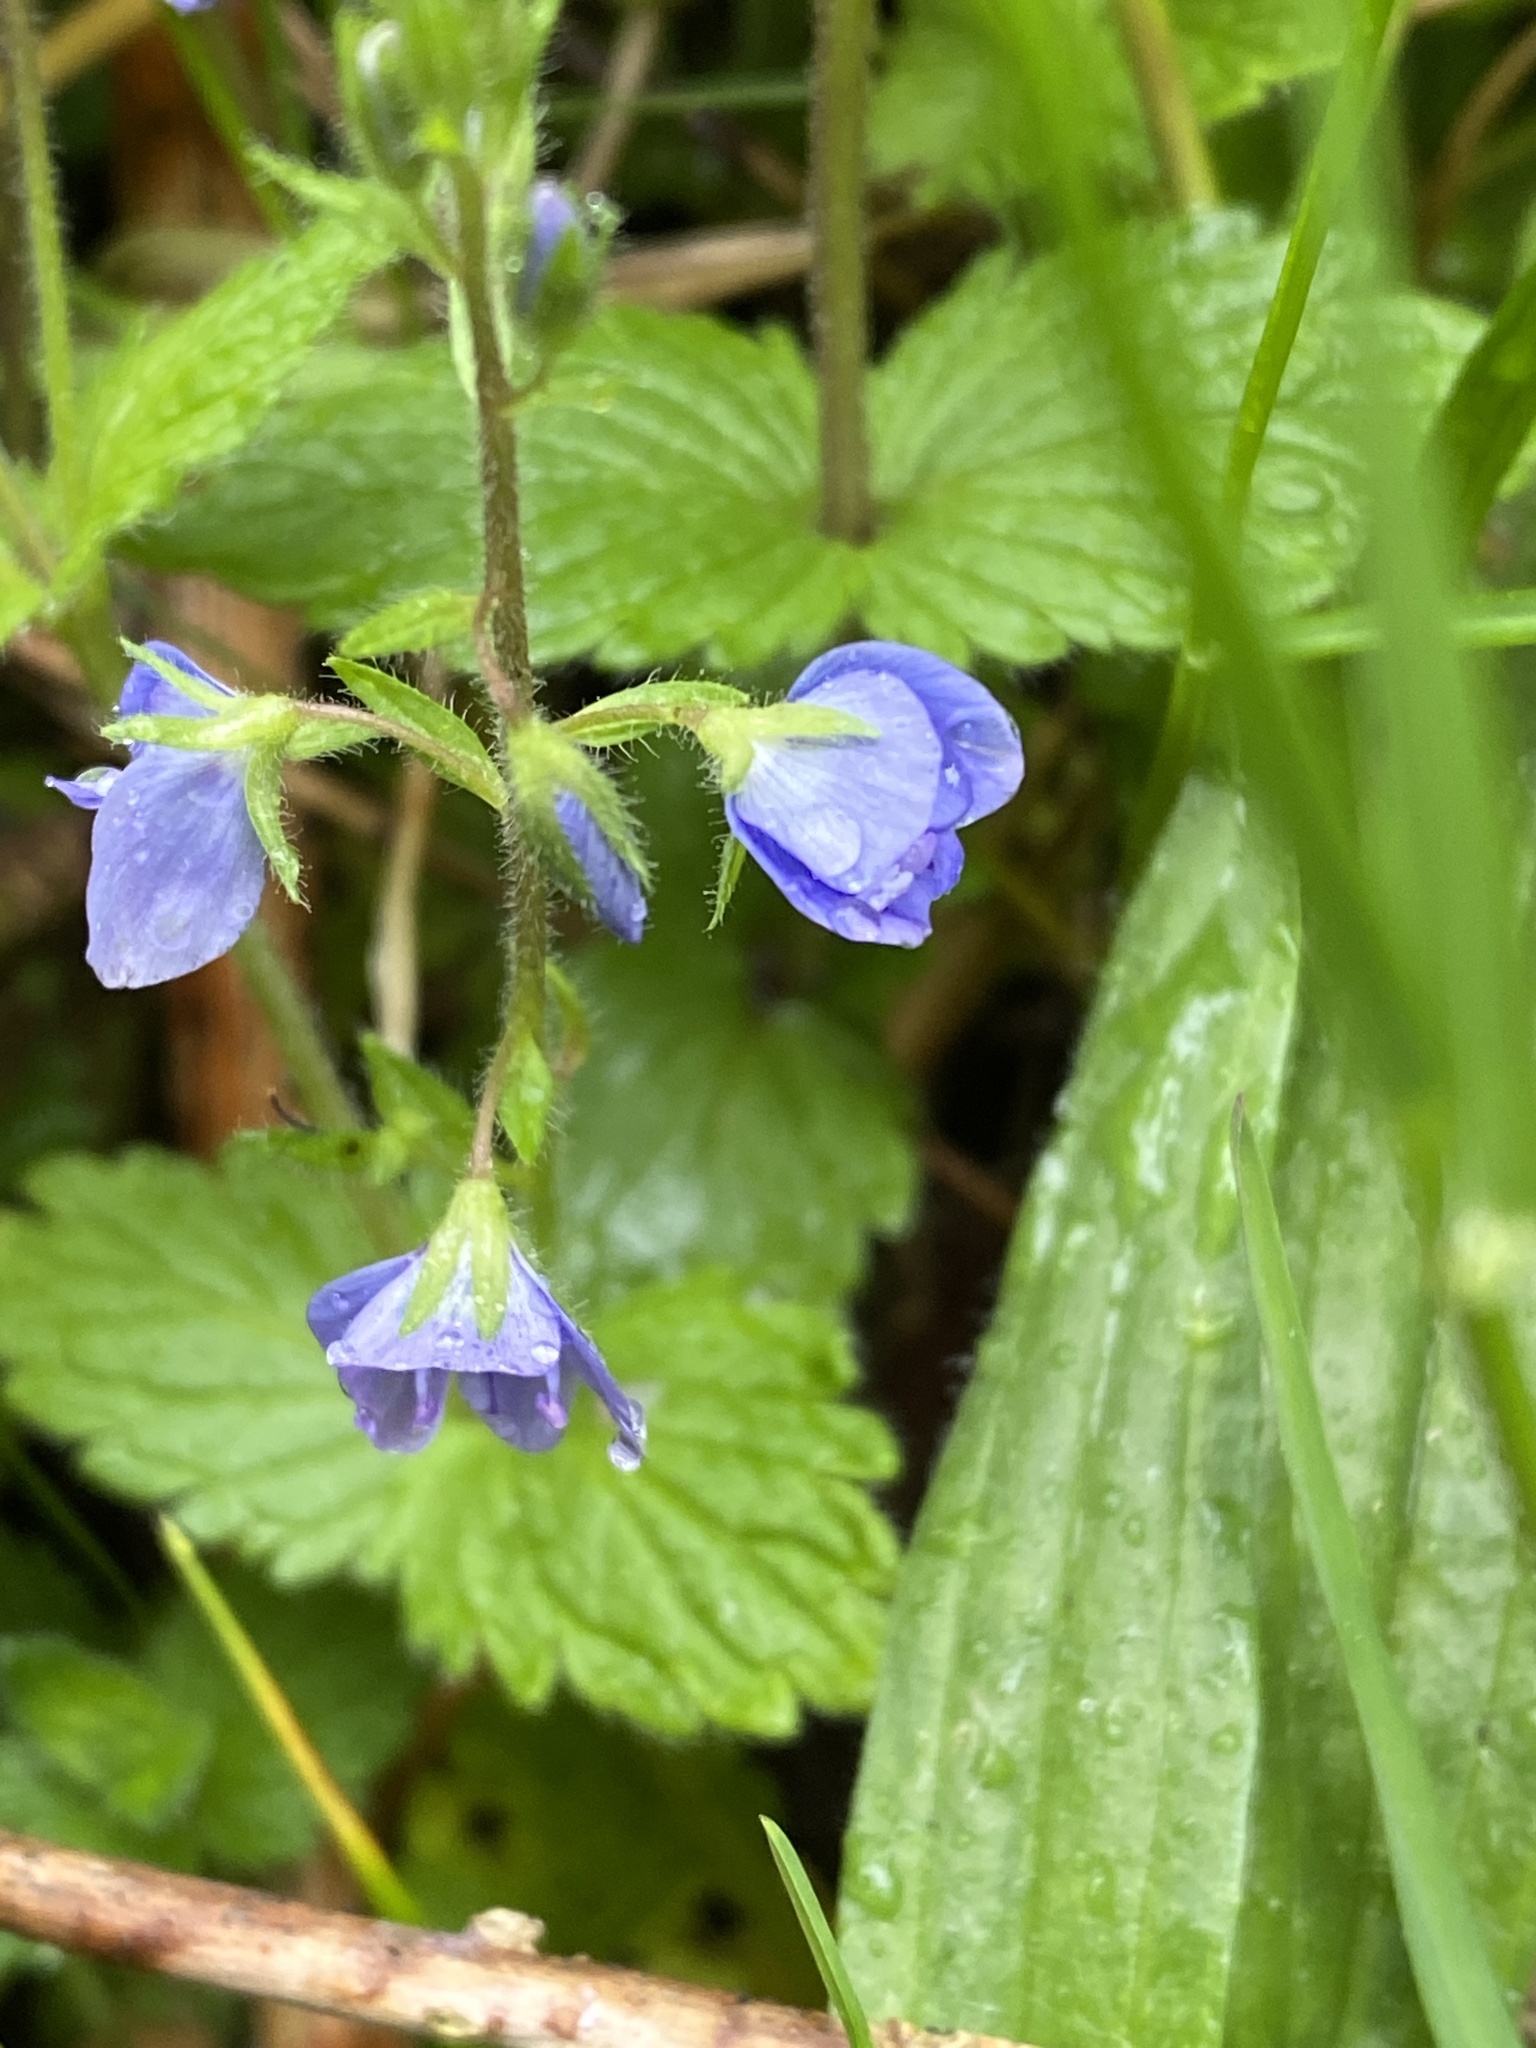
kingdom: Plantae
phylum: Tracheophyta
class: Magnoliopsida
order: Lamiales
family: Plantaginaceae
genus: Veronica
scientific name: Veronica chamaedrys
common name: Germander speedwell
